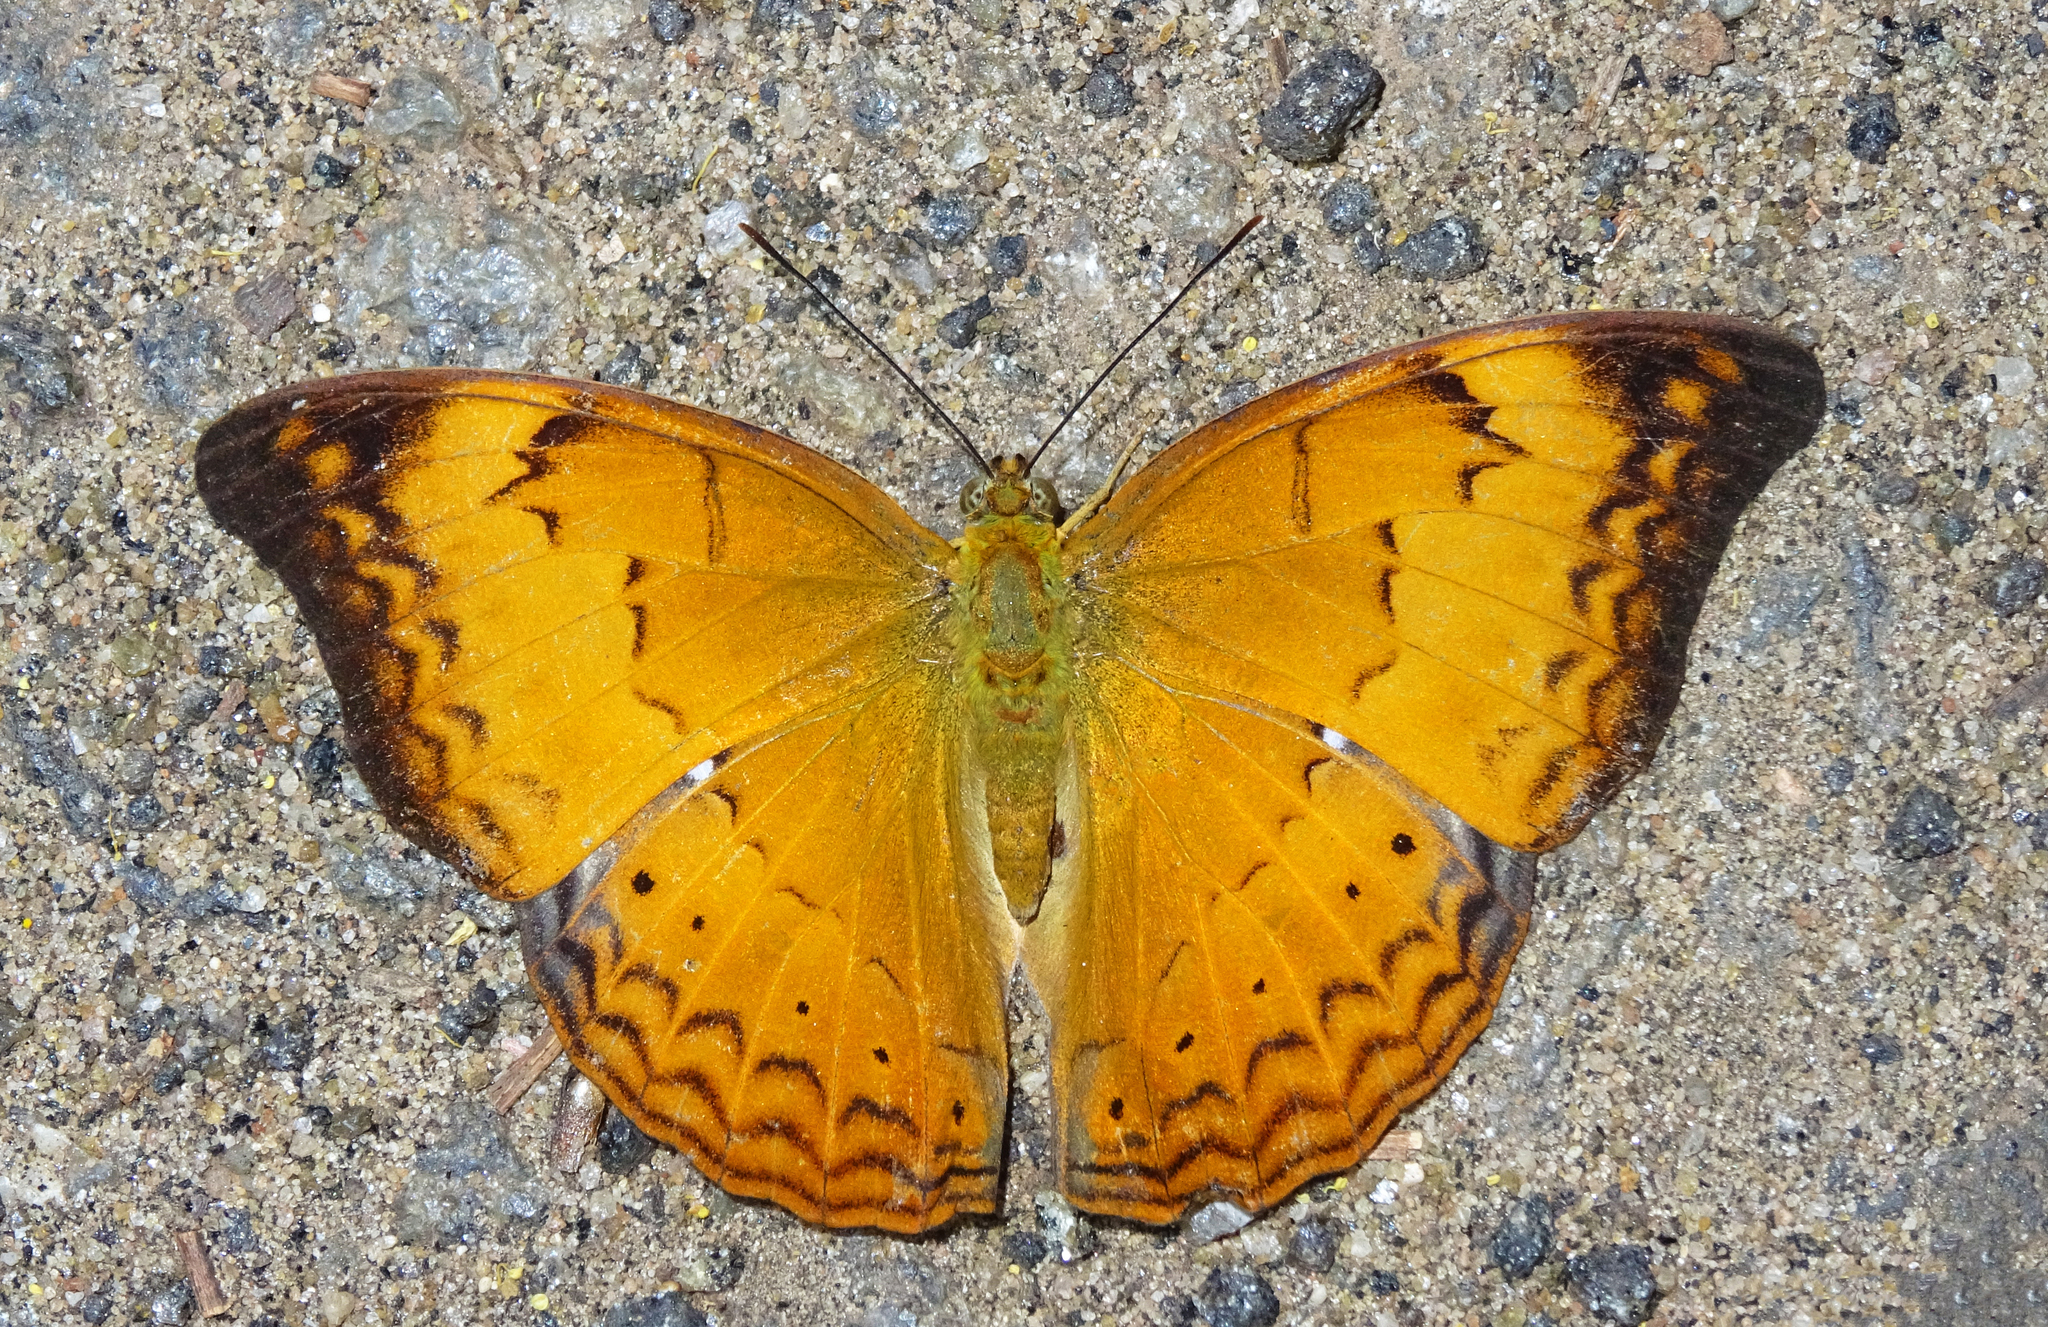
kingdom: Animalia
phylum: Arthropoda
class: Insecta
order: Lepidoptera
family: Nymphalidae
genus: Cirrochroa
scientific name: Cirrochroa thais
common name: Tamil yeoman
